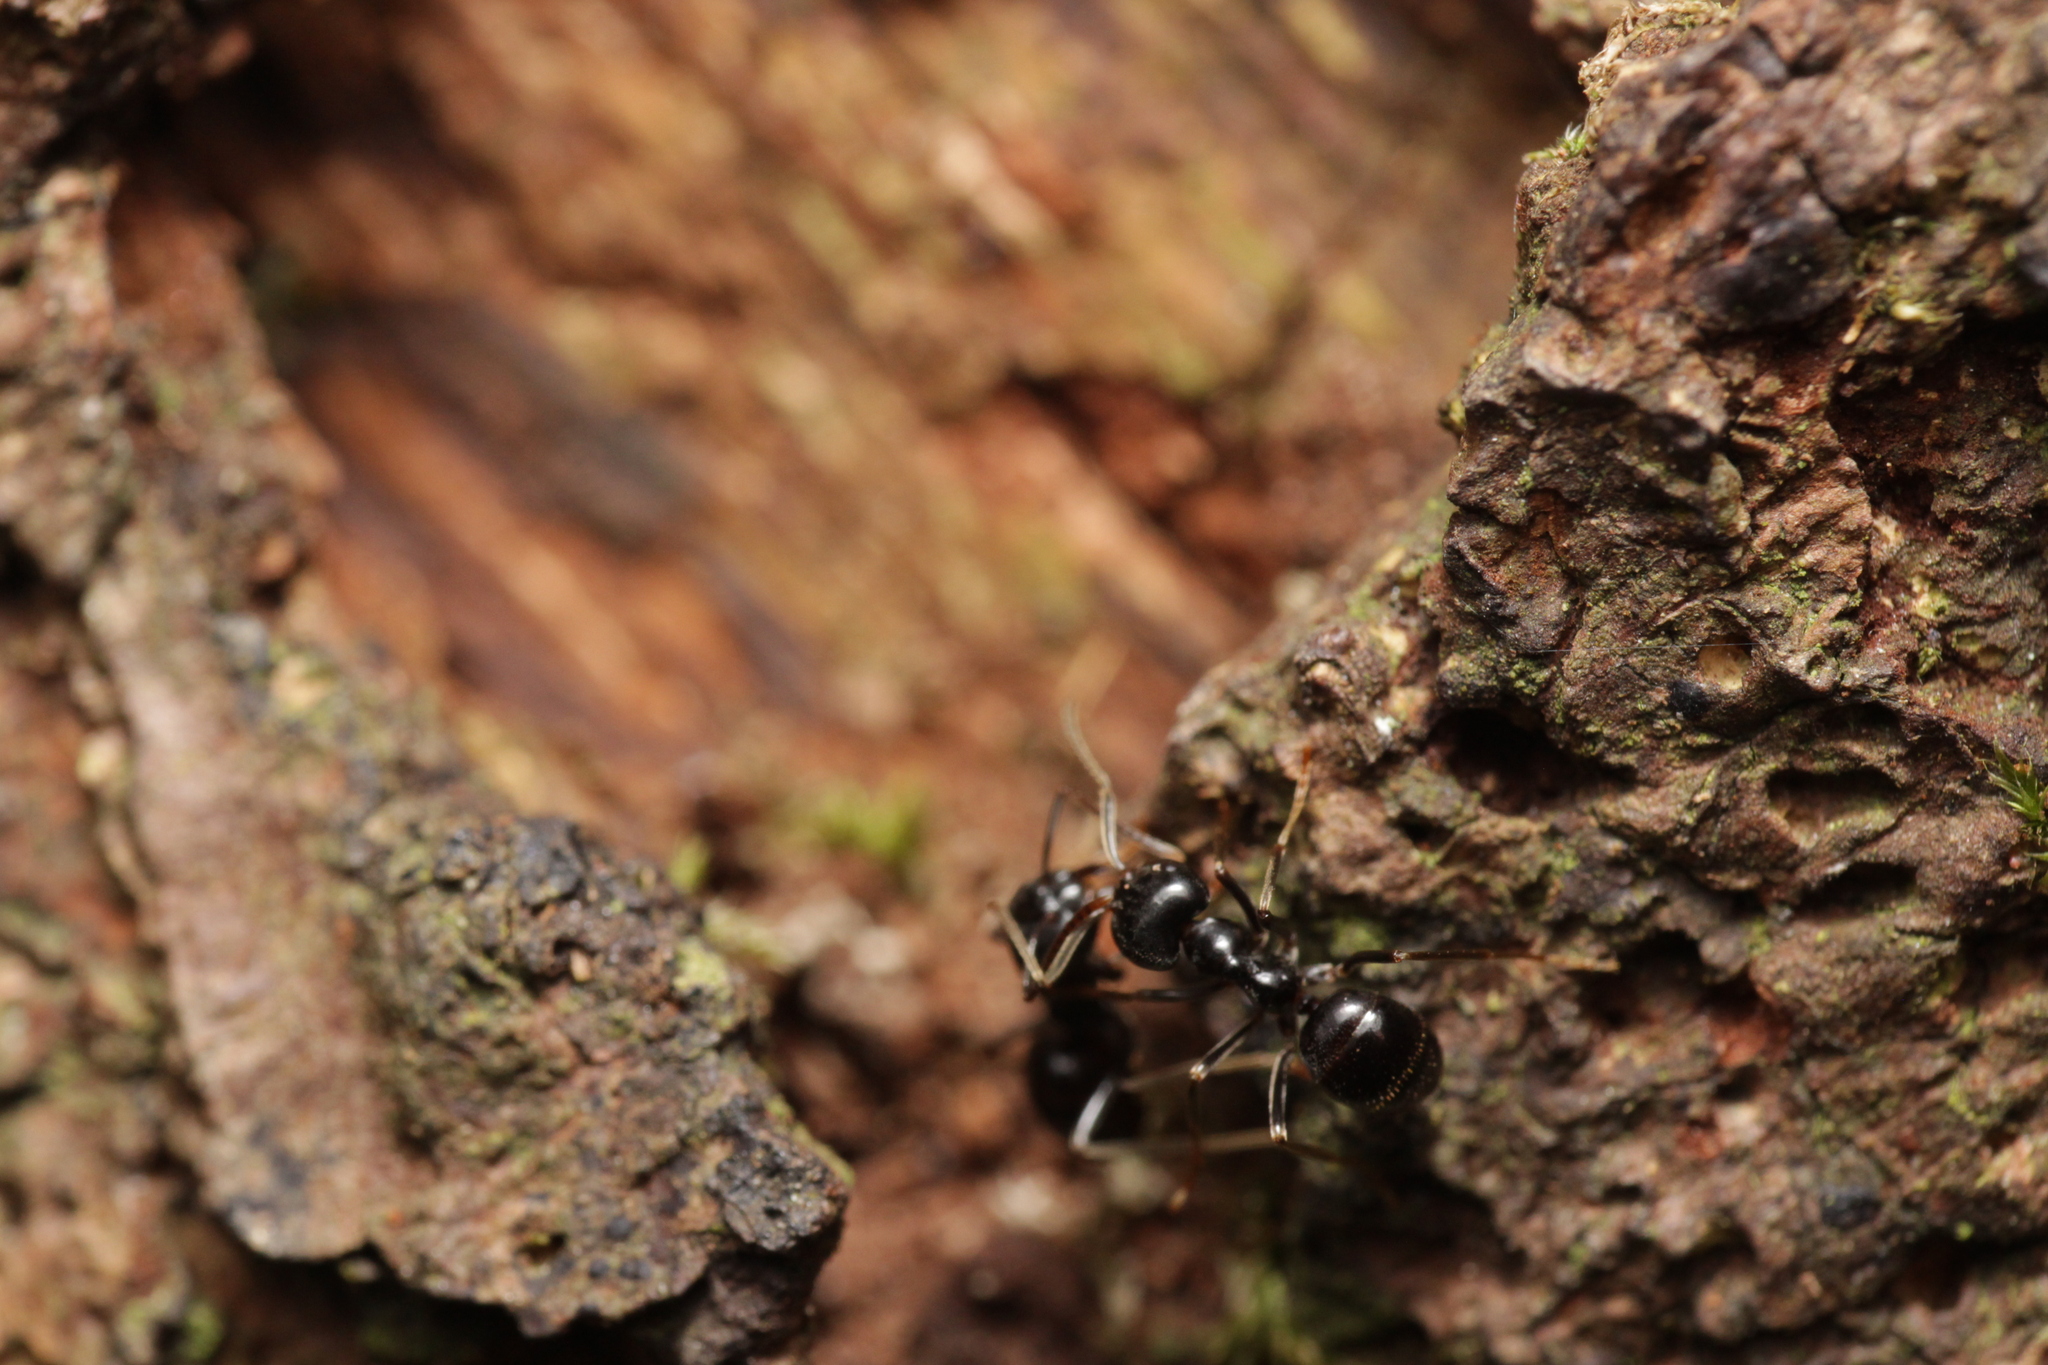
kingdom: Animalia
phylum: Arthropoda
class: Insecta
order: Hymenoptera
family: Formicidae
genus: Lasius
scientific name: Lasius fuliginosus
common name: Jet ant
